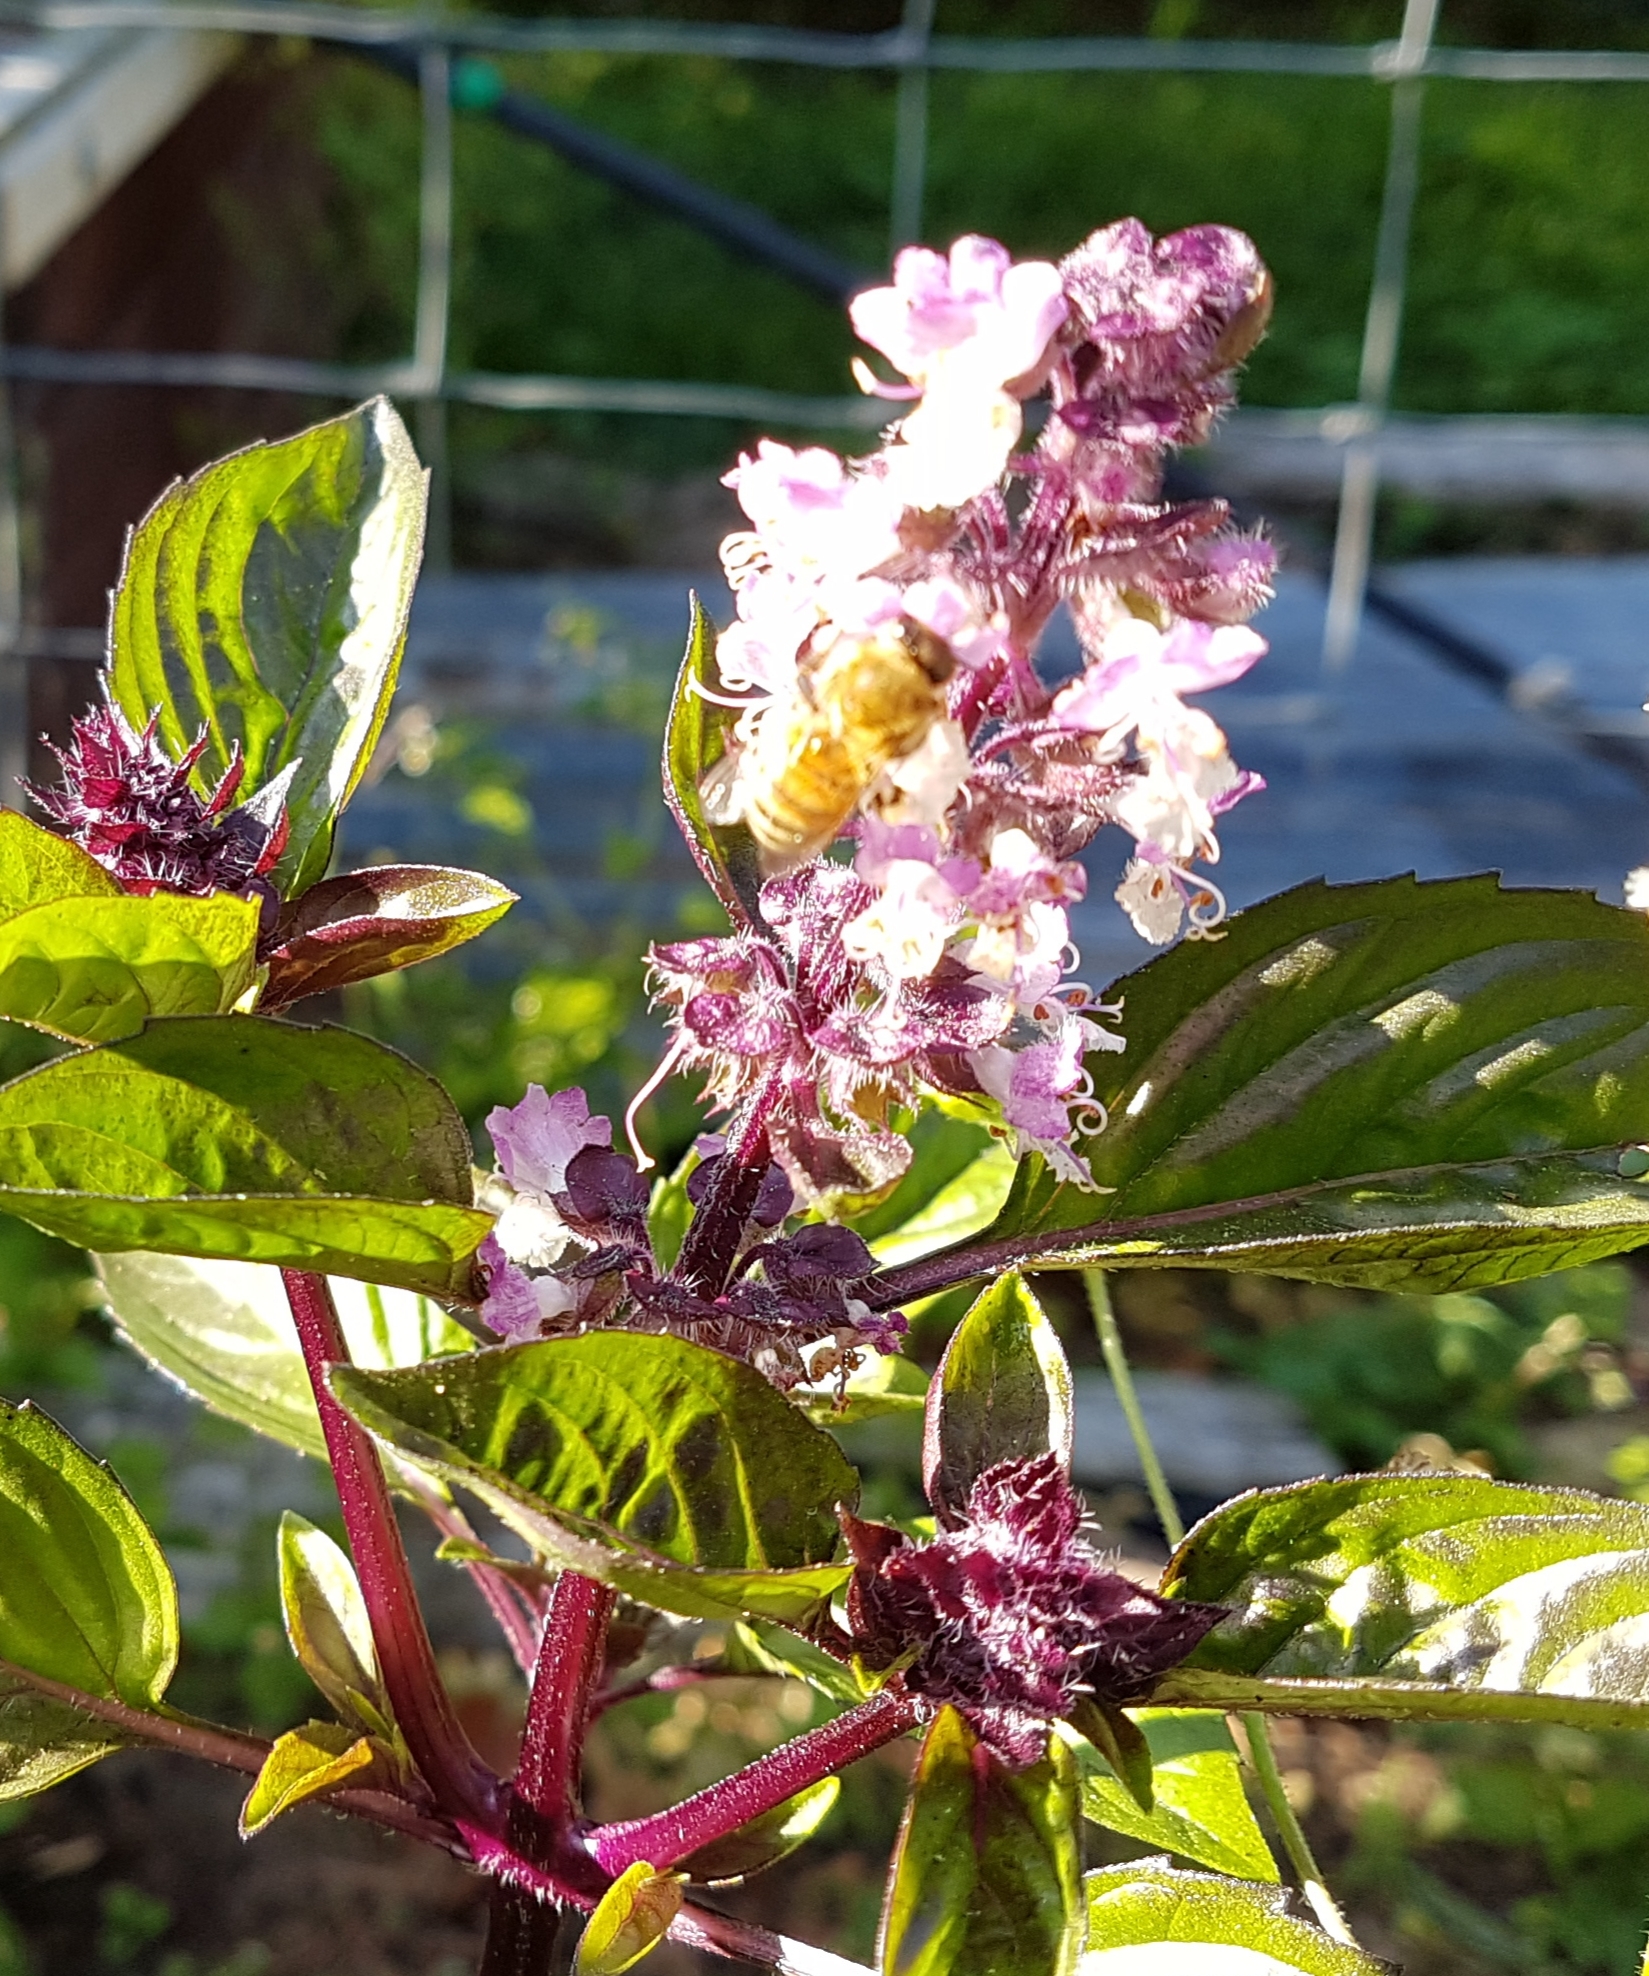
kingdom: Animalia
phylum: Arthropoda
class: Insecta
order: Hymenoptera
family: Apidae
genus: Apis
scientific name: Apis mellifera
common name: Honey bee
